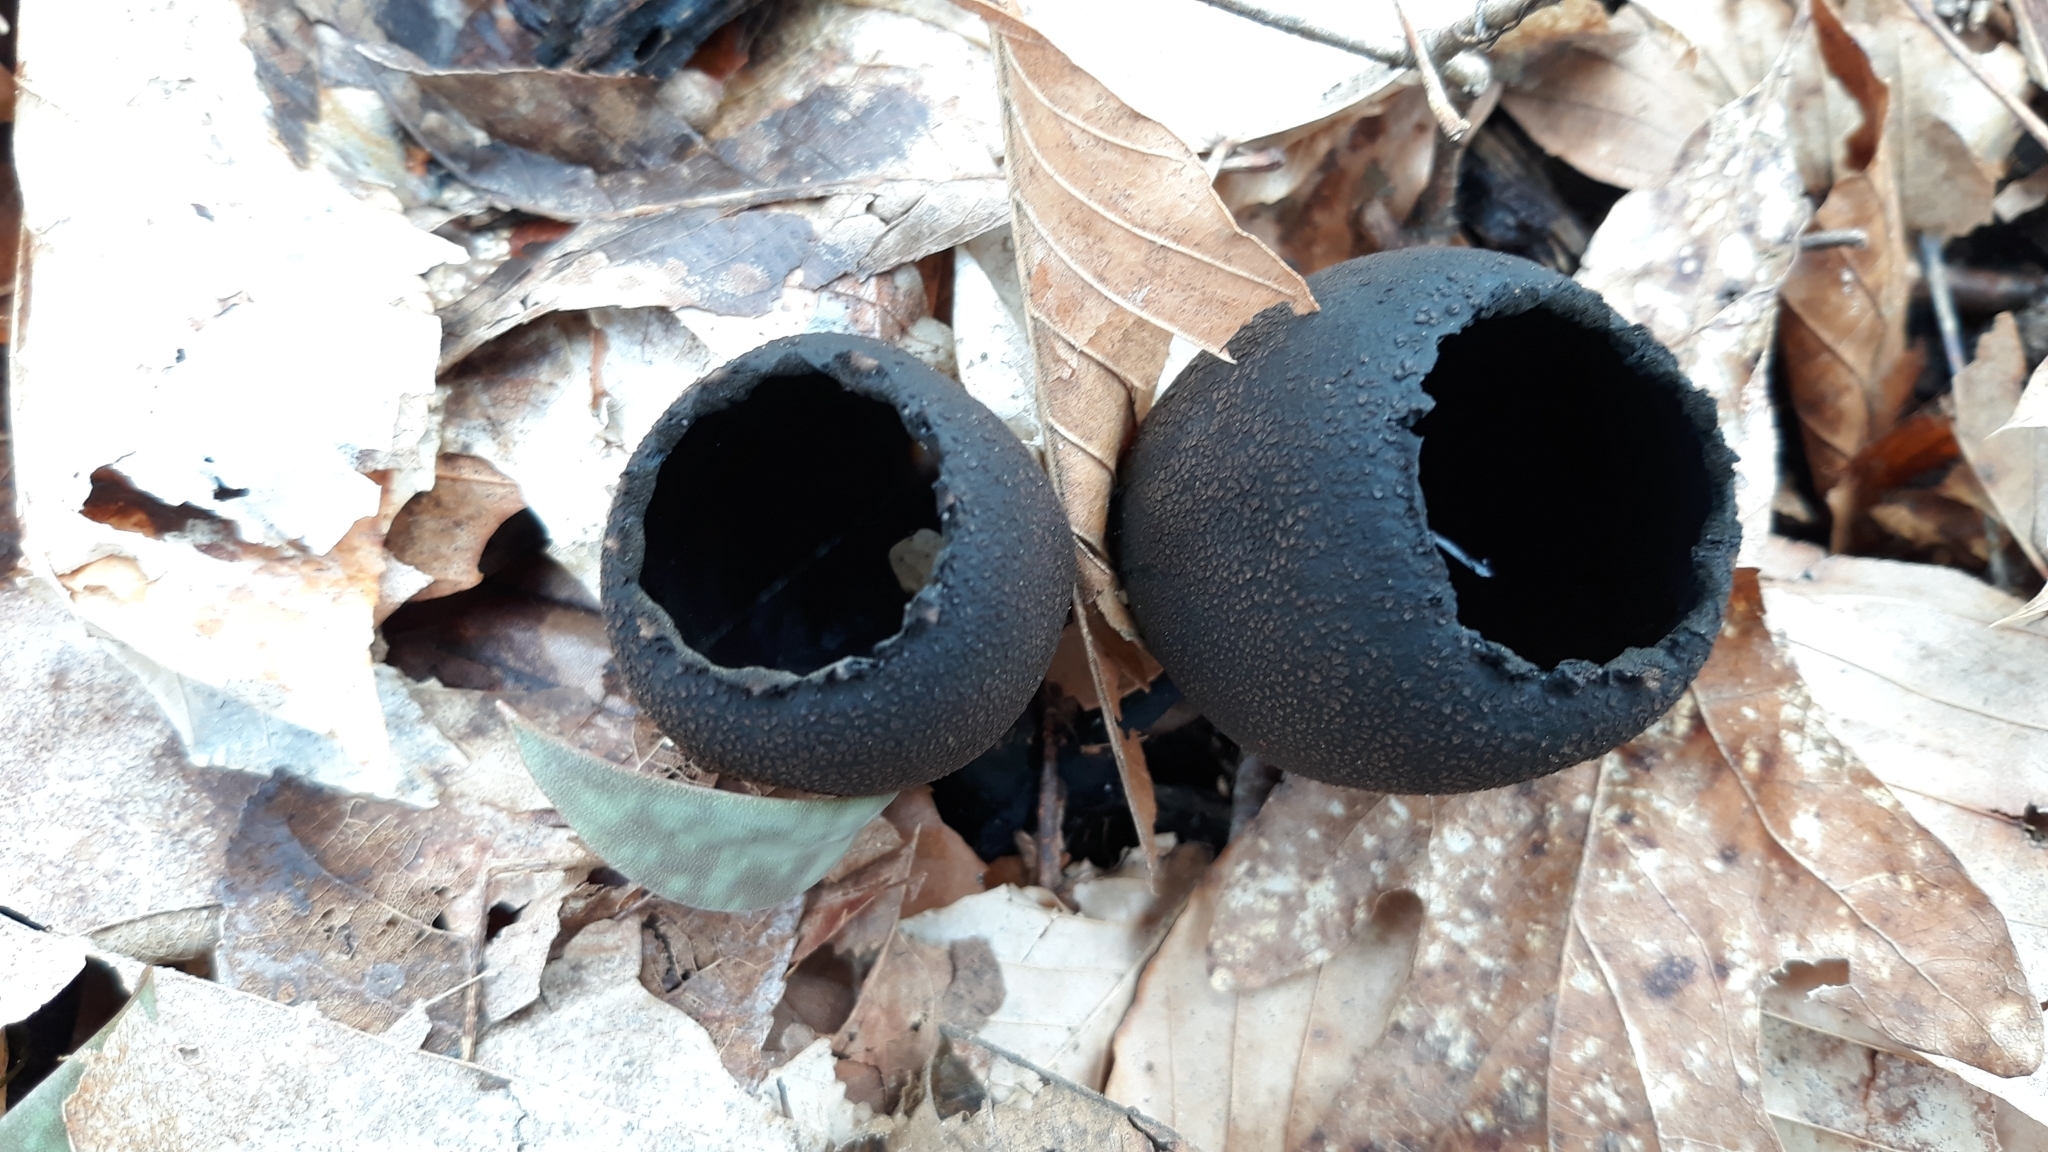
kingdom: Fungi
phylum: Ascomycota
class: Pezizomycetes
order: Pezizales
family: Sarcosomataceae
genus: Urnula
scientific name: Urnula craterium
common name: Devil's urn
